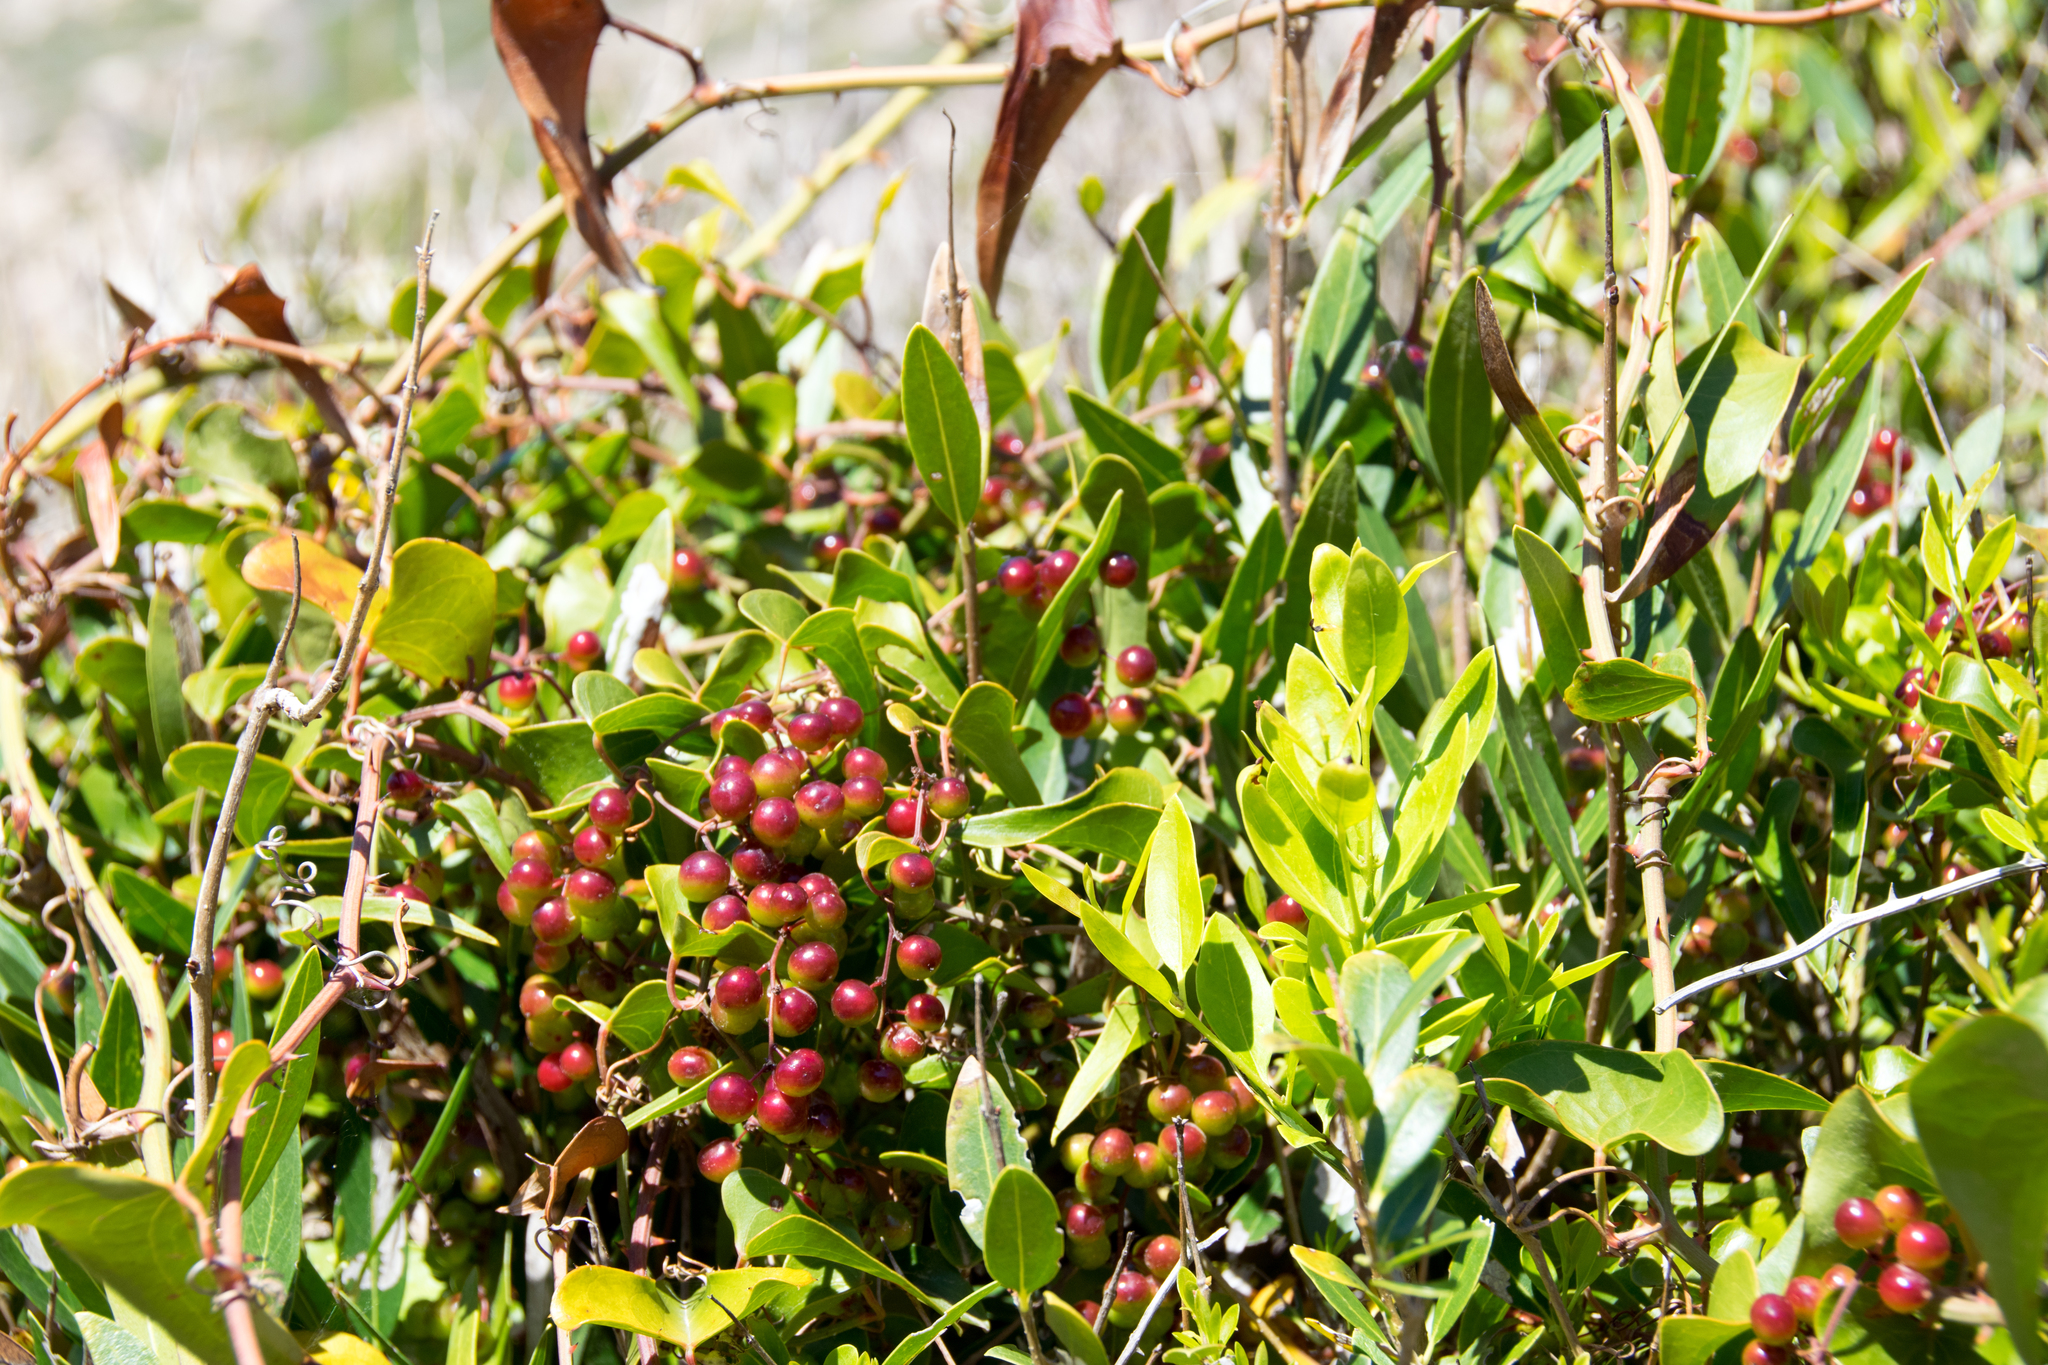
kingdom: Plantae
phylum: Tracheophyta
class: Magnoliopsida
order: Sapindales
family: Anacardiaceae
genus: Pistacia
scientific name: Pistacia lentiscus
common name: Lentisk
